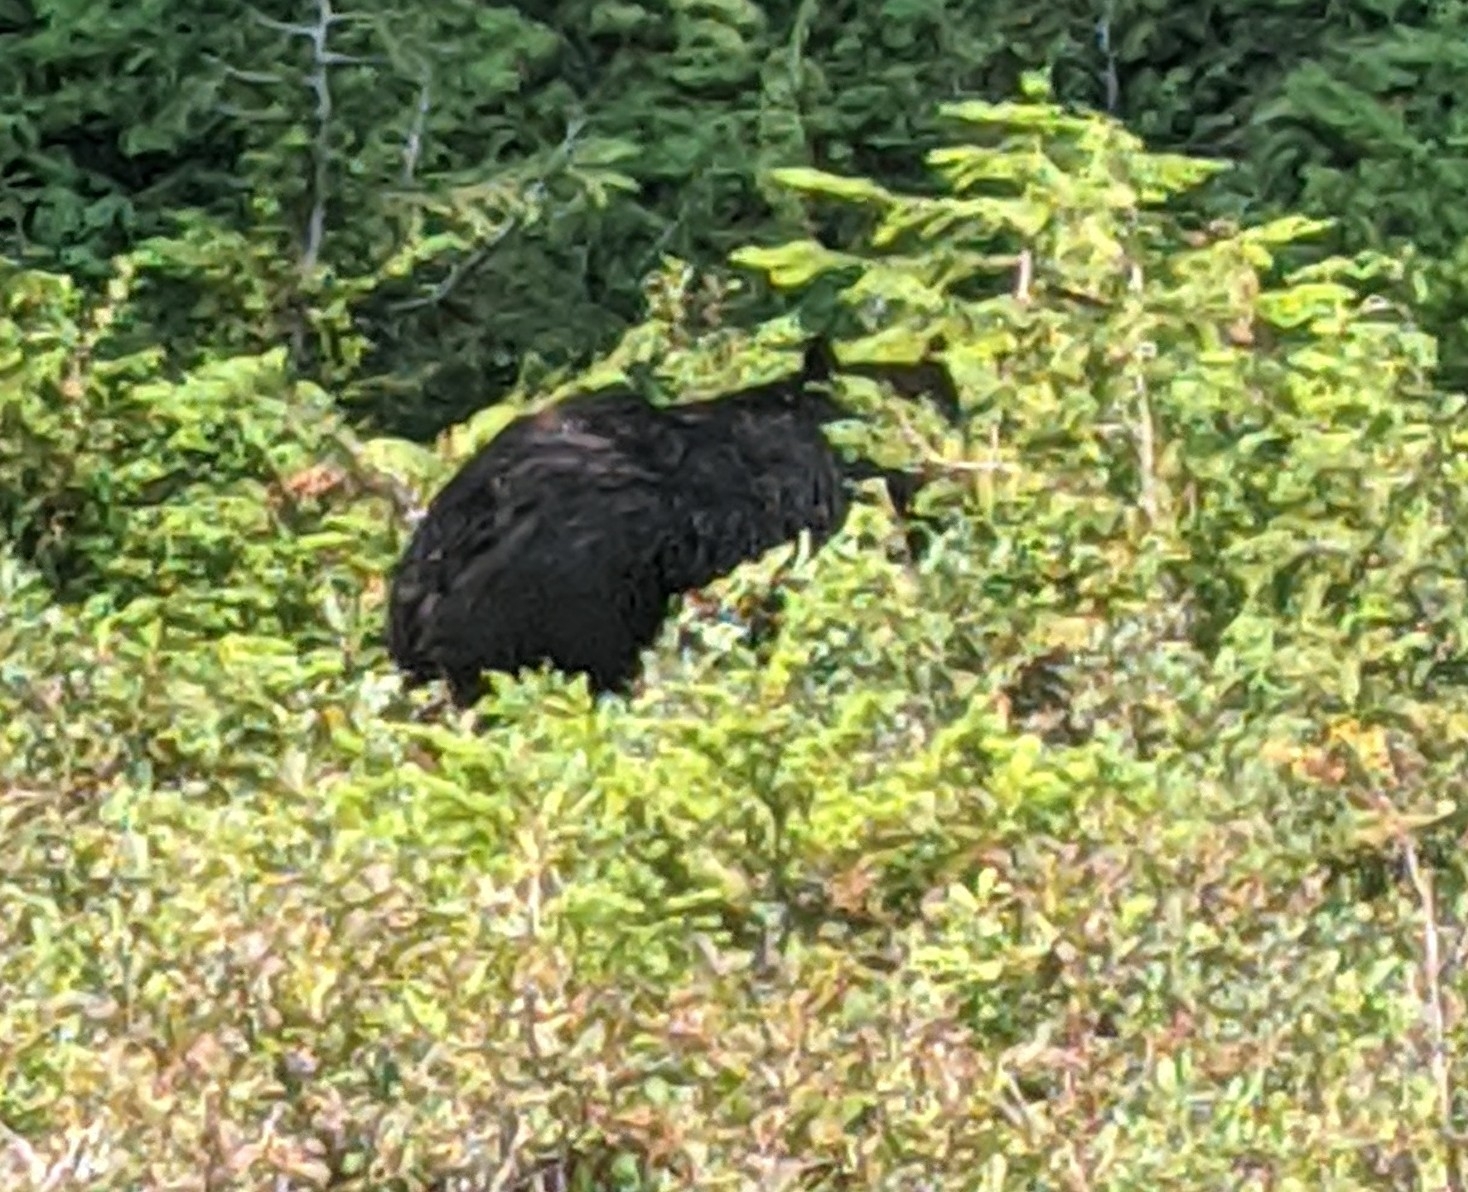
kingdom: Animalia
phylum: Chordata
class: Mammalia
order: Carnivora
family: Ursidae
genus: Ursus
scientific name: Ursus americanus
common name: American black bear
